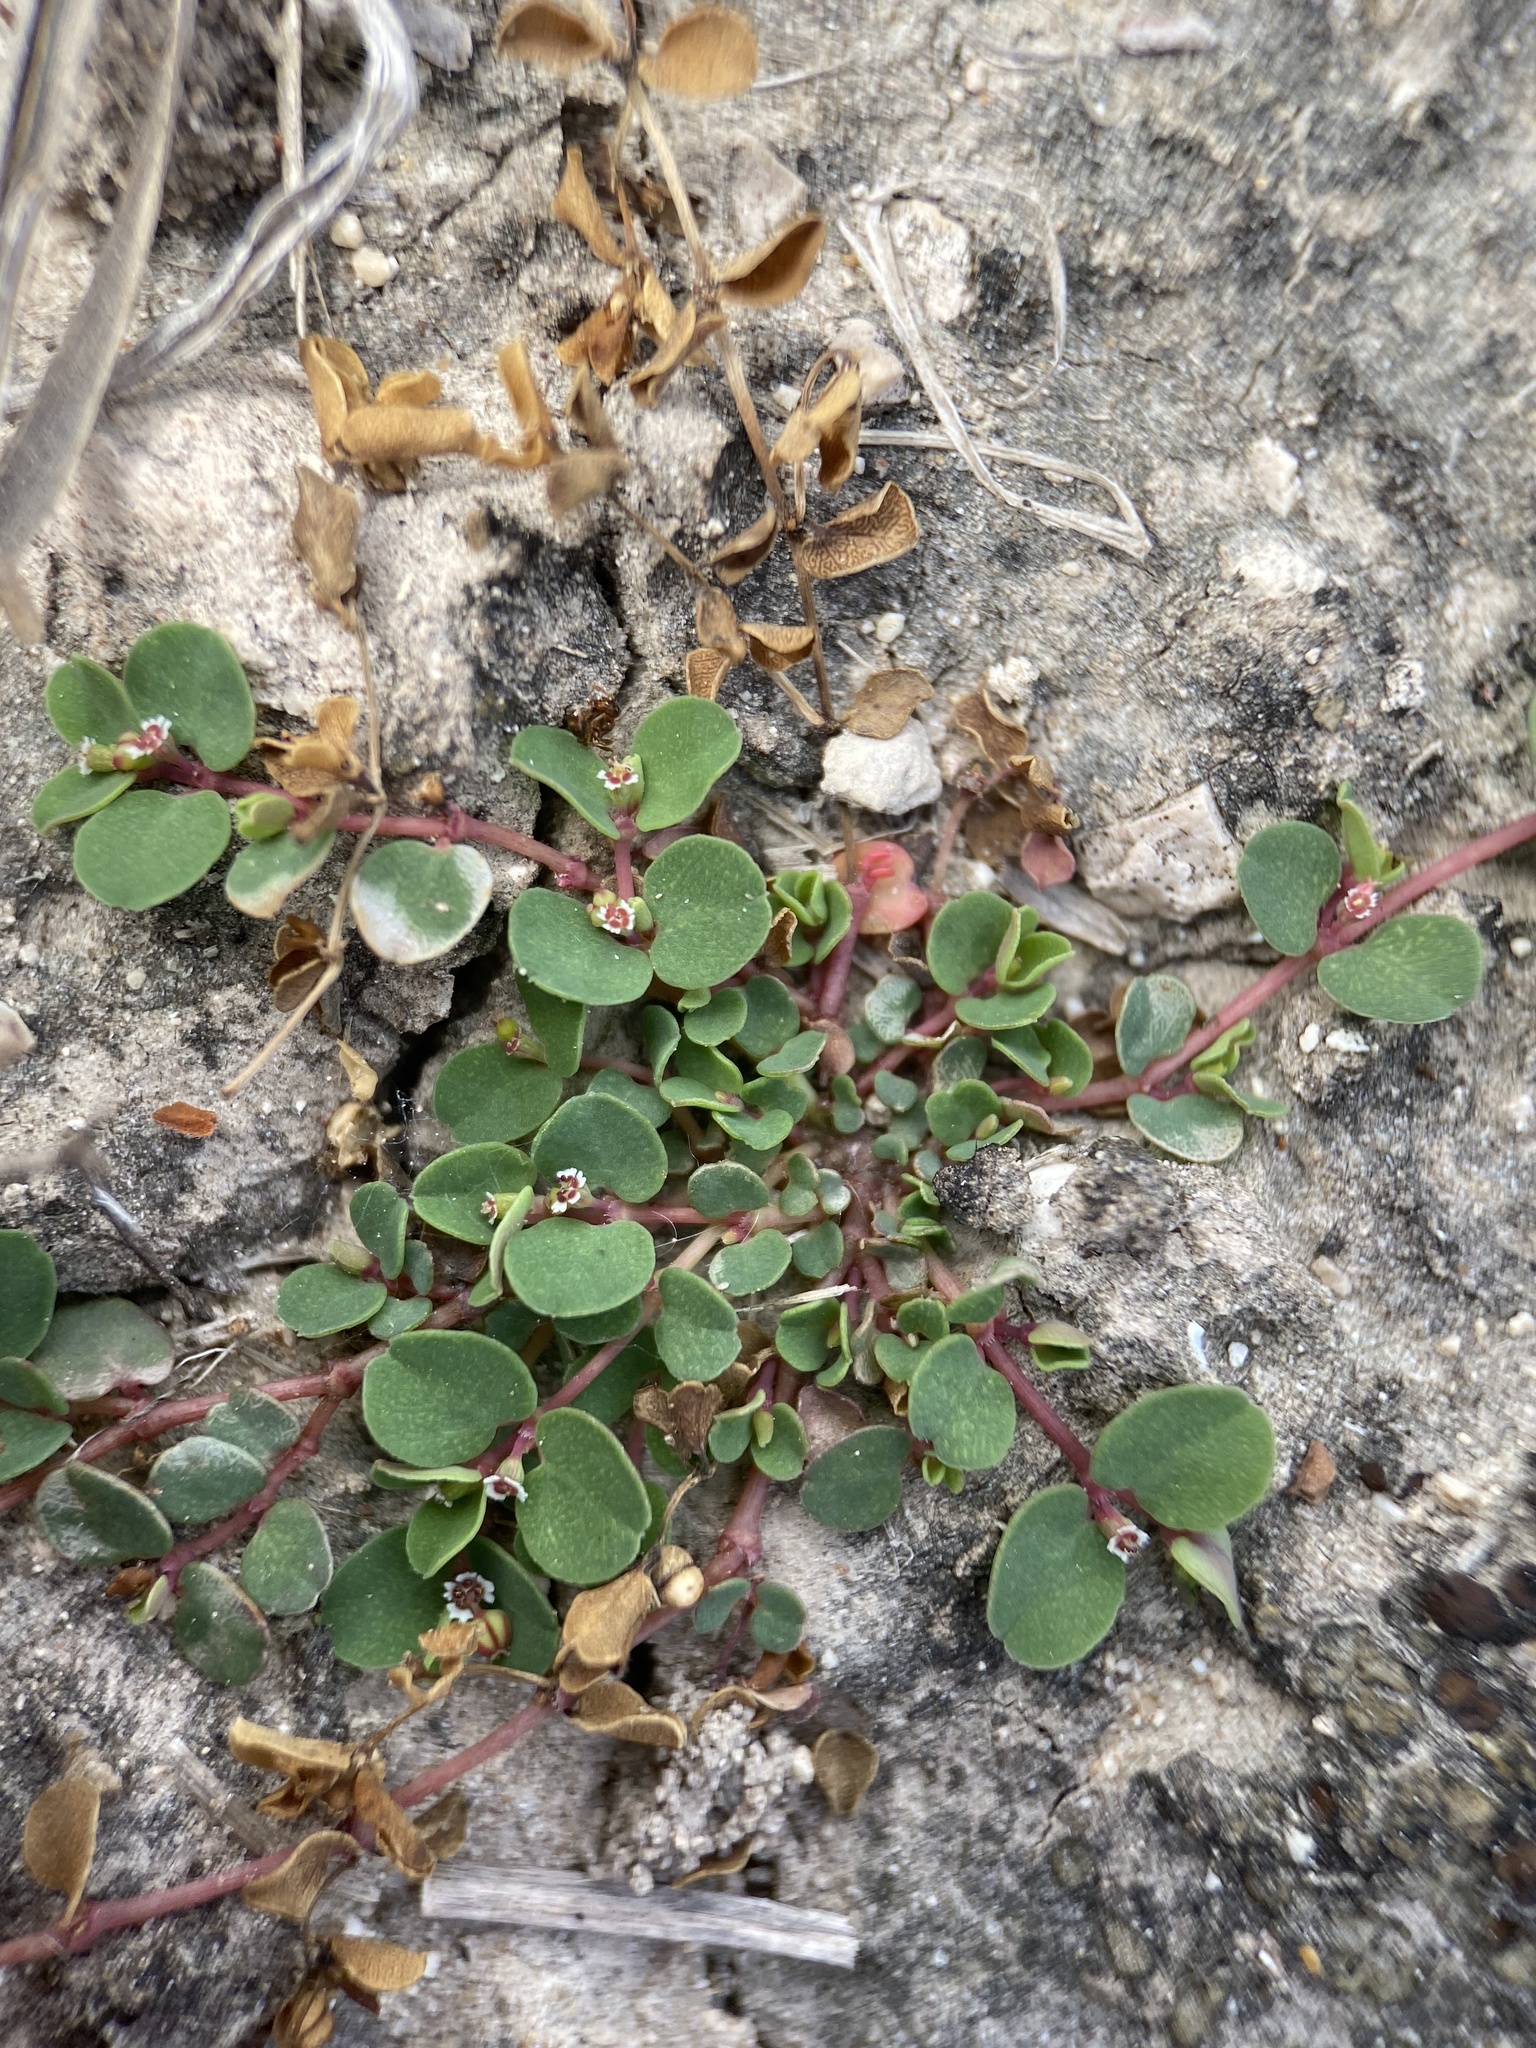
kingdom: Plantae
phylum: Tracheophyta
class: Magnoliopsida
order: Malpighiales
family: Euphorbiaceae
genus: Euphorbia
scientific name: Euphorbia serpens
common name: Matted sandmat
